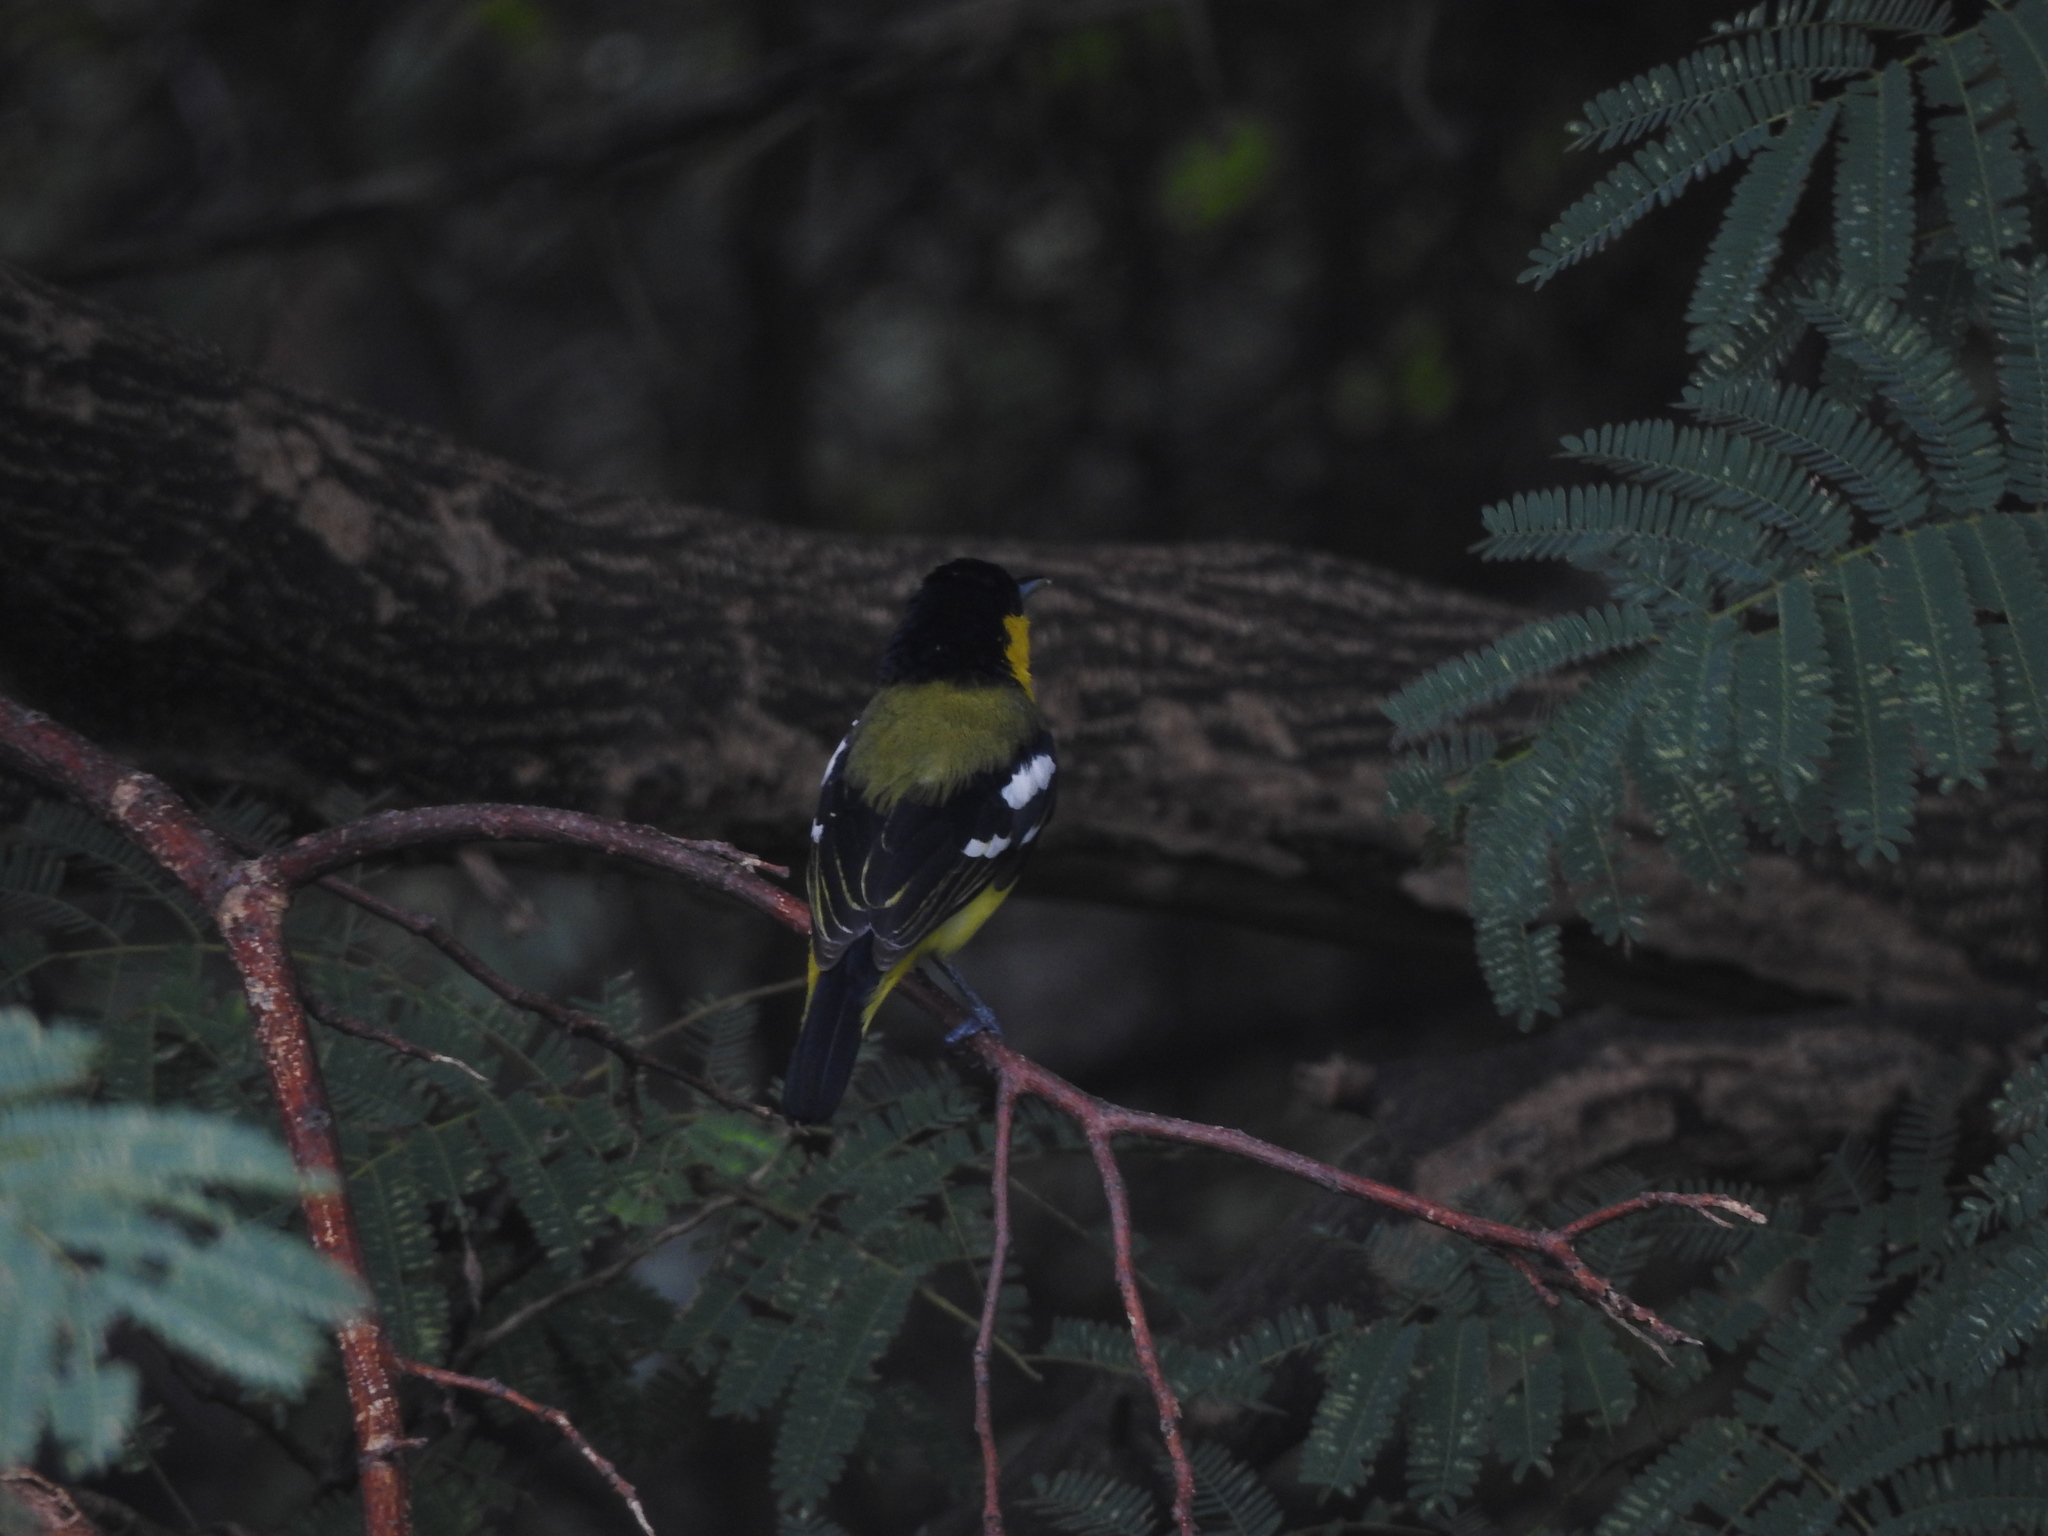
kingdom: Animalia
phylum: Chordata
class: Aves
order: Passeriformes
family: Aegithinidae
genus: Aegithina
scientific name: Aegithina tiphia
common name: Common iora
